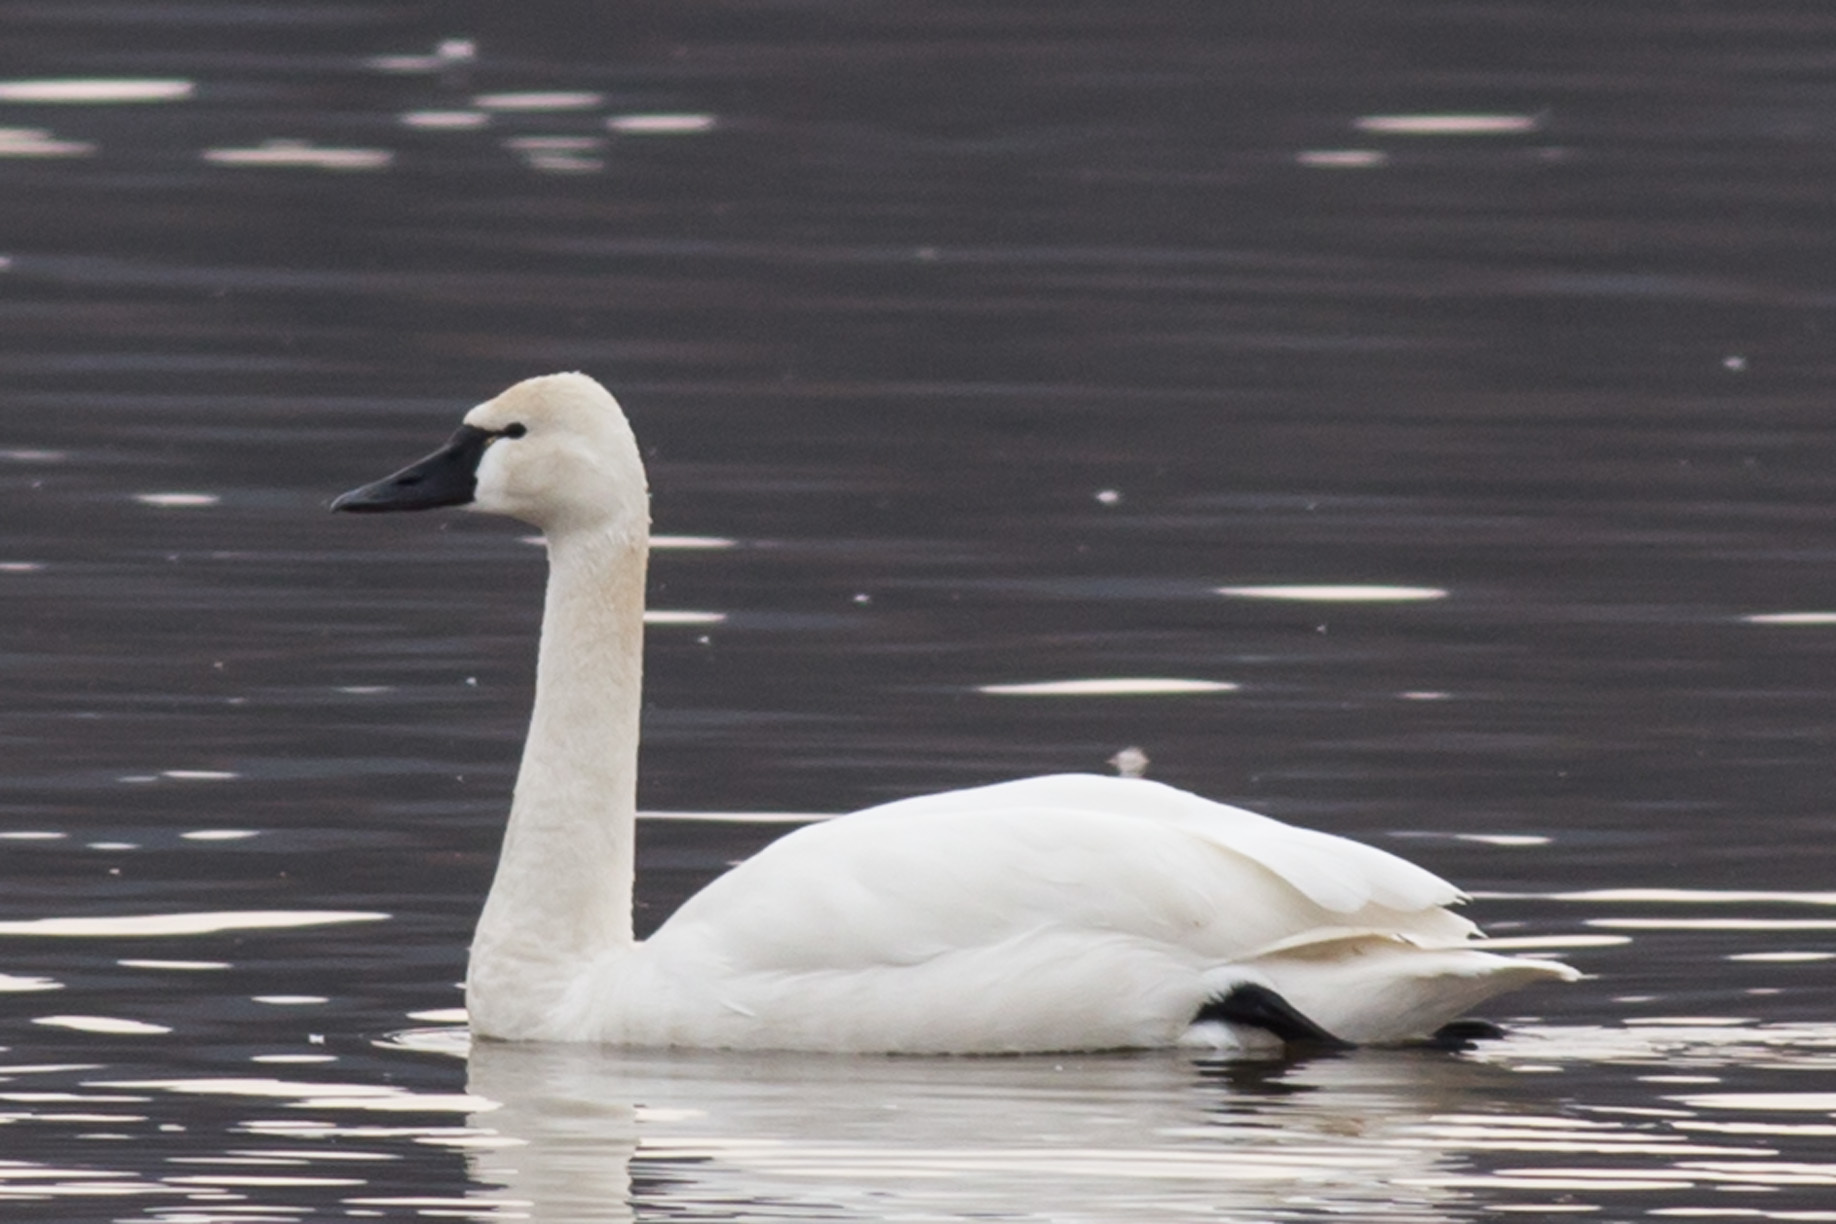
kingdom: Animalia
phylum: Chordata
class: Aves
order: Anseriformes
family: Anatidae
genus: Cygnus
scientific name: Cygnus columbianus
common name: Tundra swan
